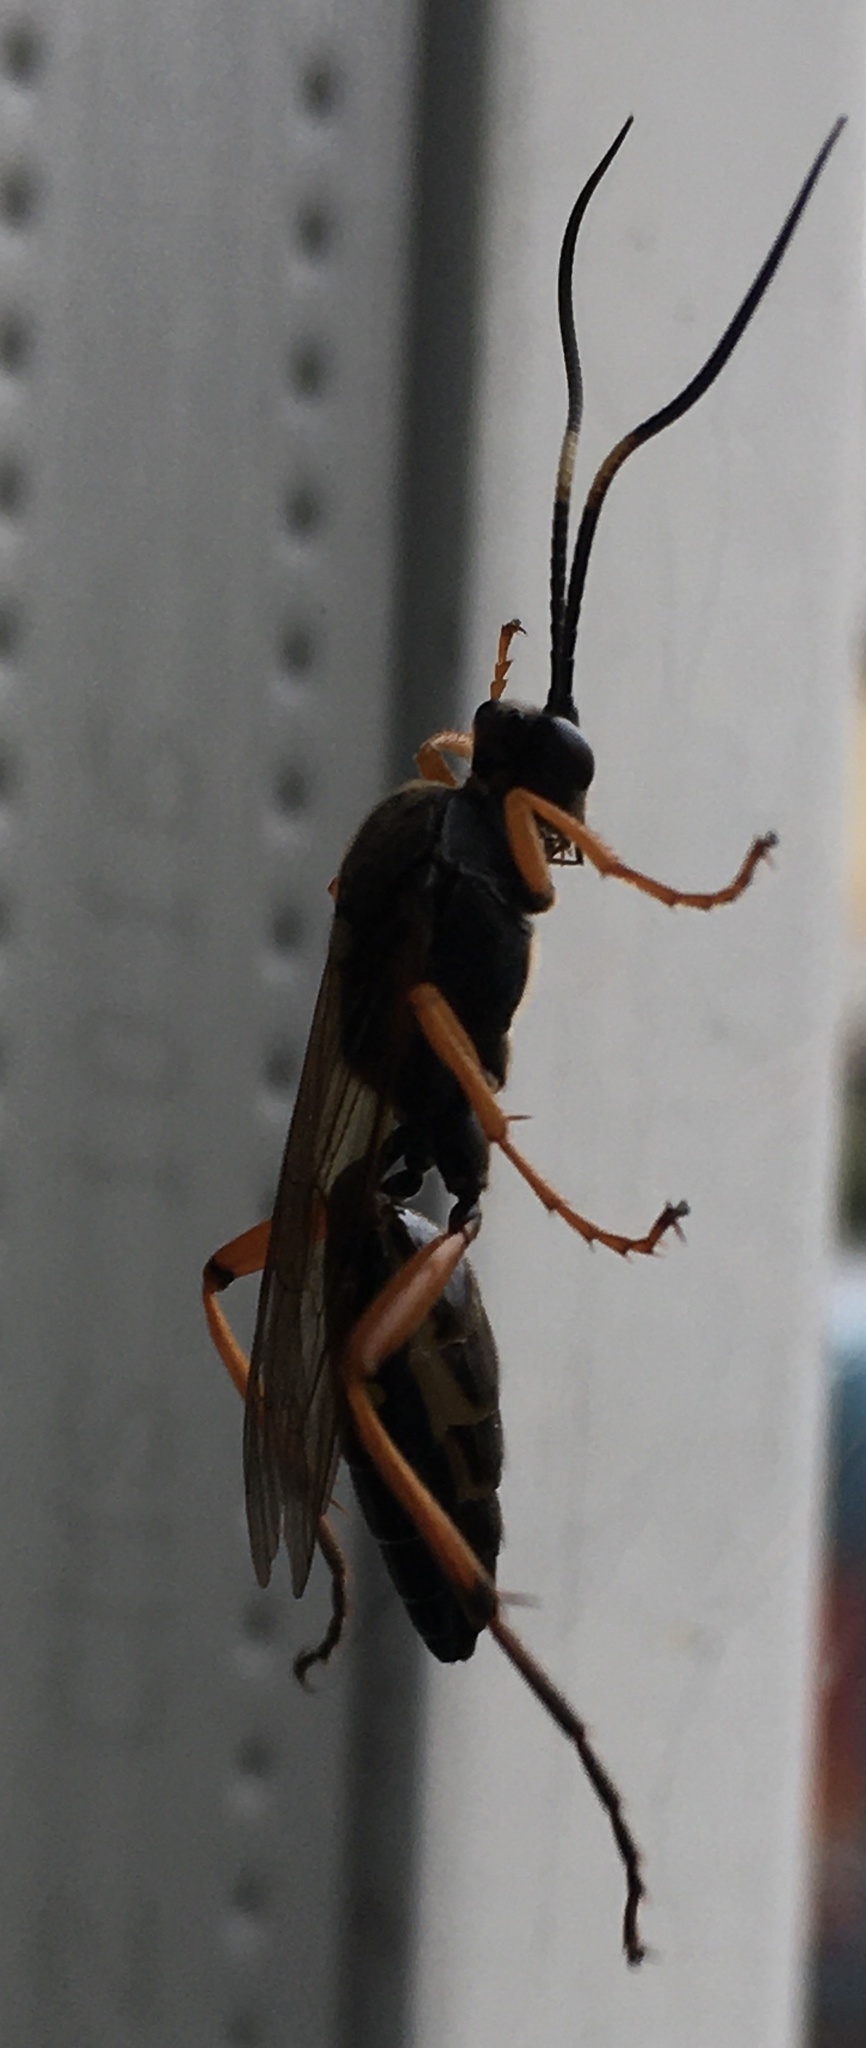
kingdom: Animalia
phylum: Arthropoda
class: Insecta
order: Hymenoptera
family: Ichneumonidae
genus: Diphyus
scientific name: Diphyus quadripunctorius
